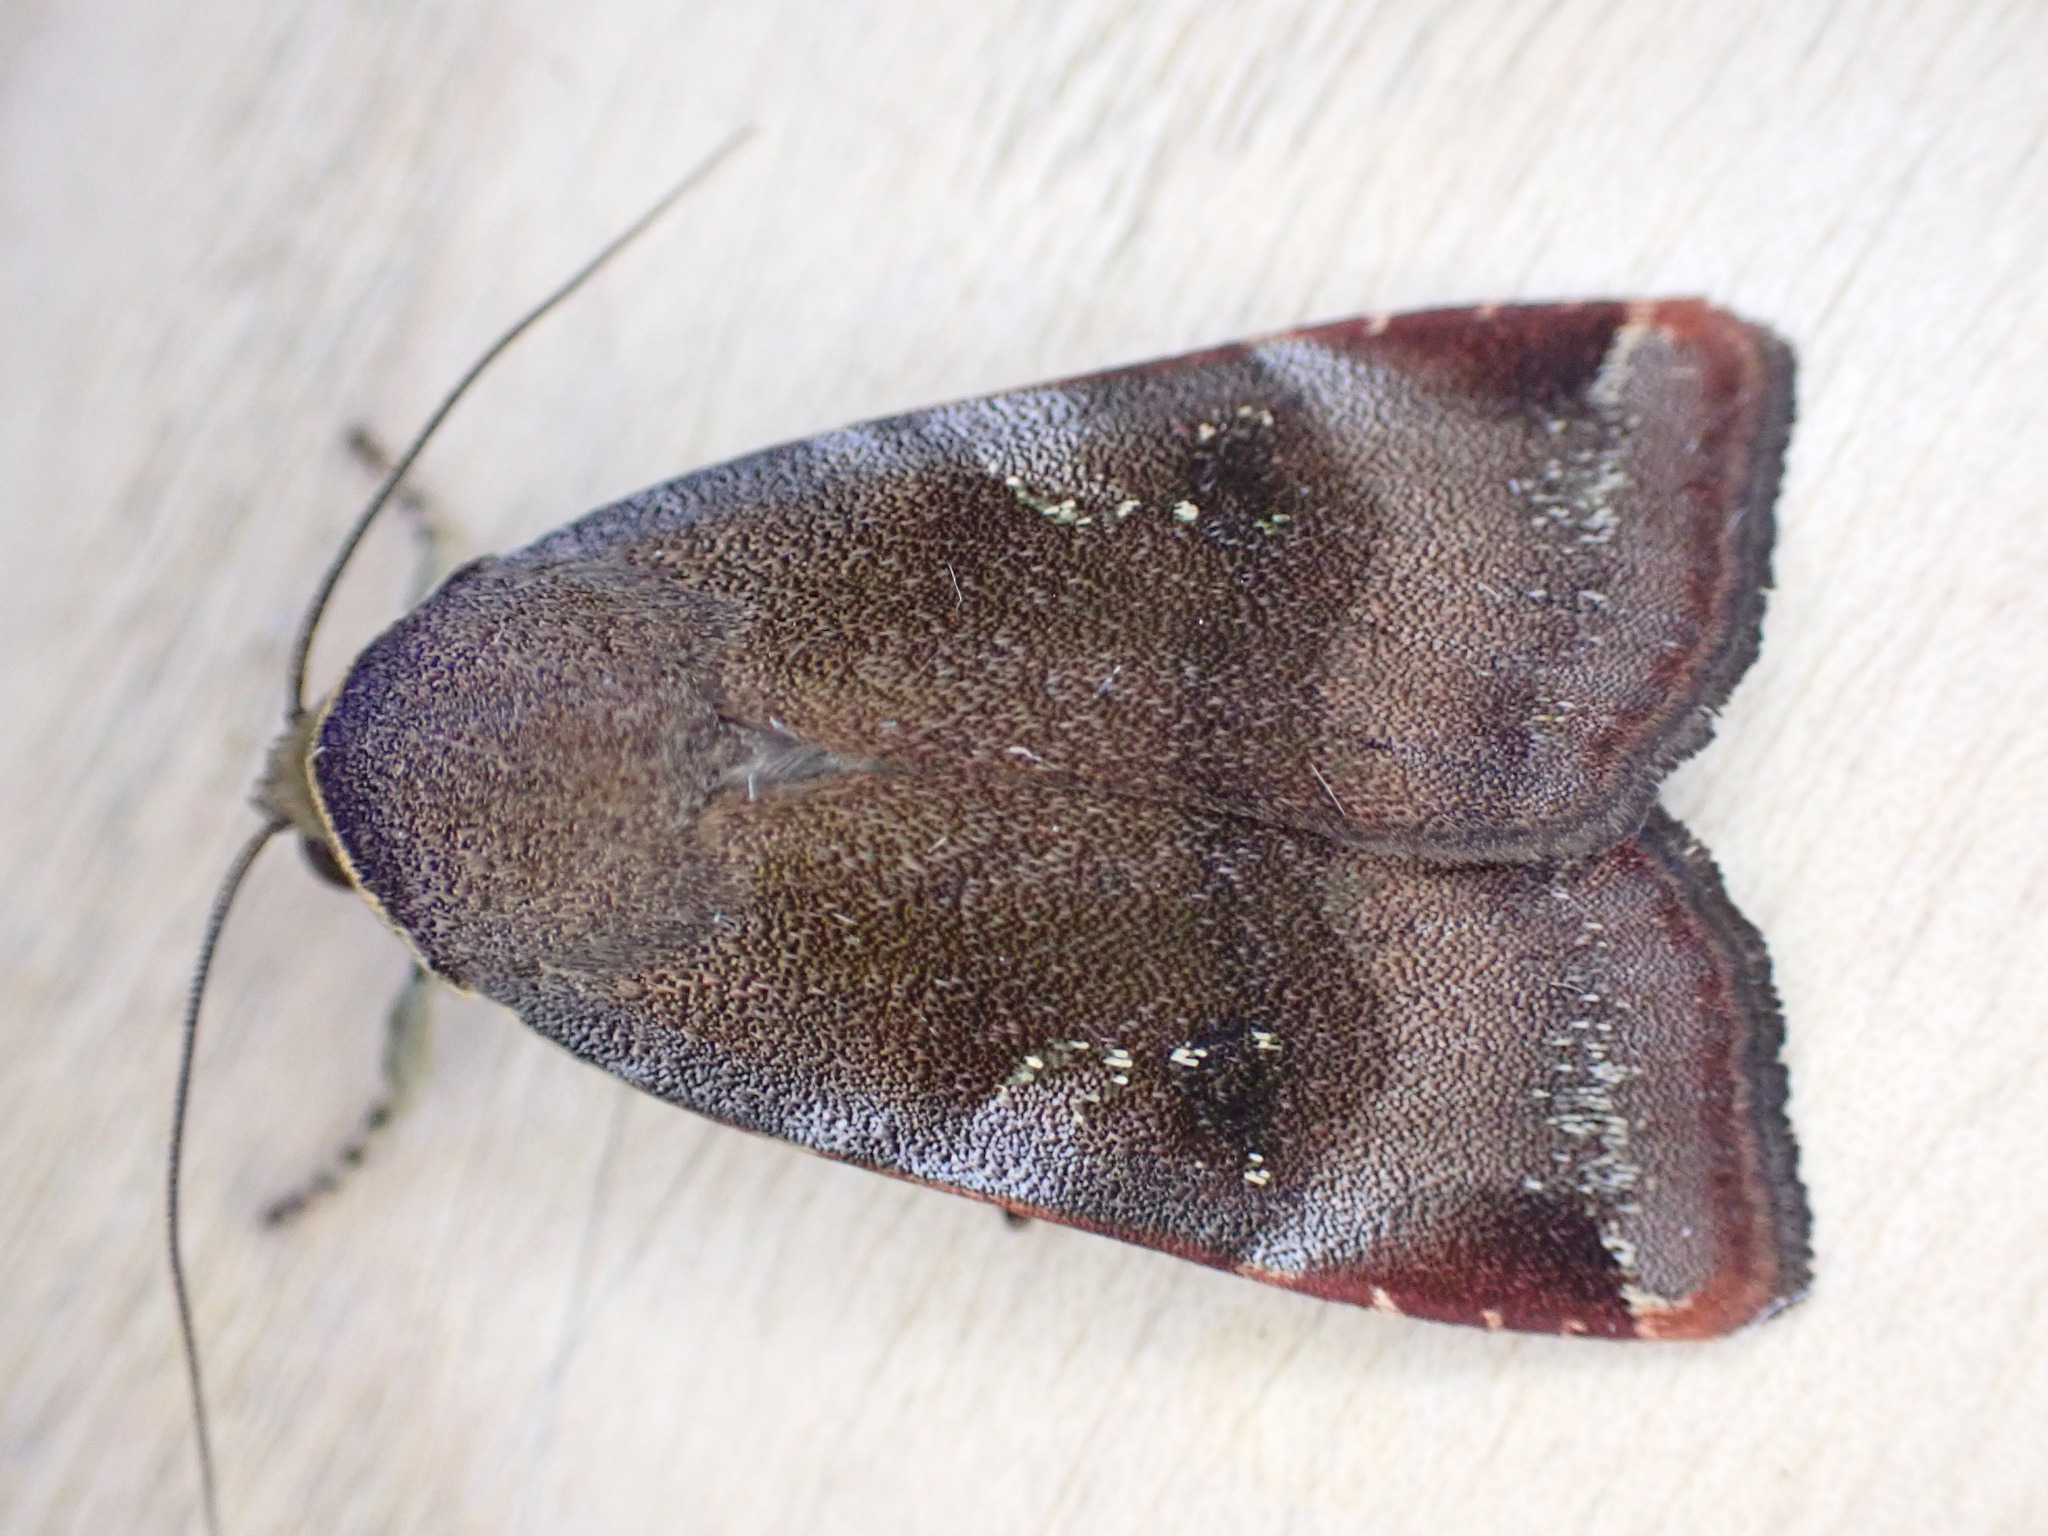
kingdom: Animalia
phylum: Arthropoda
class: Insecta
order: Lepidoptera
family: Noctuidae
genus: Noctua
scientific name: Noctua janthe
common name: Lesser broad-bordered yellow underwing
